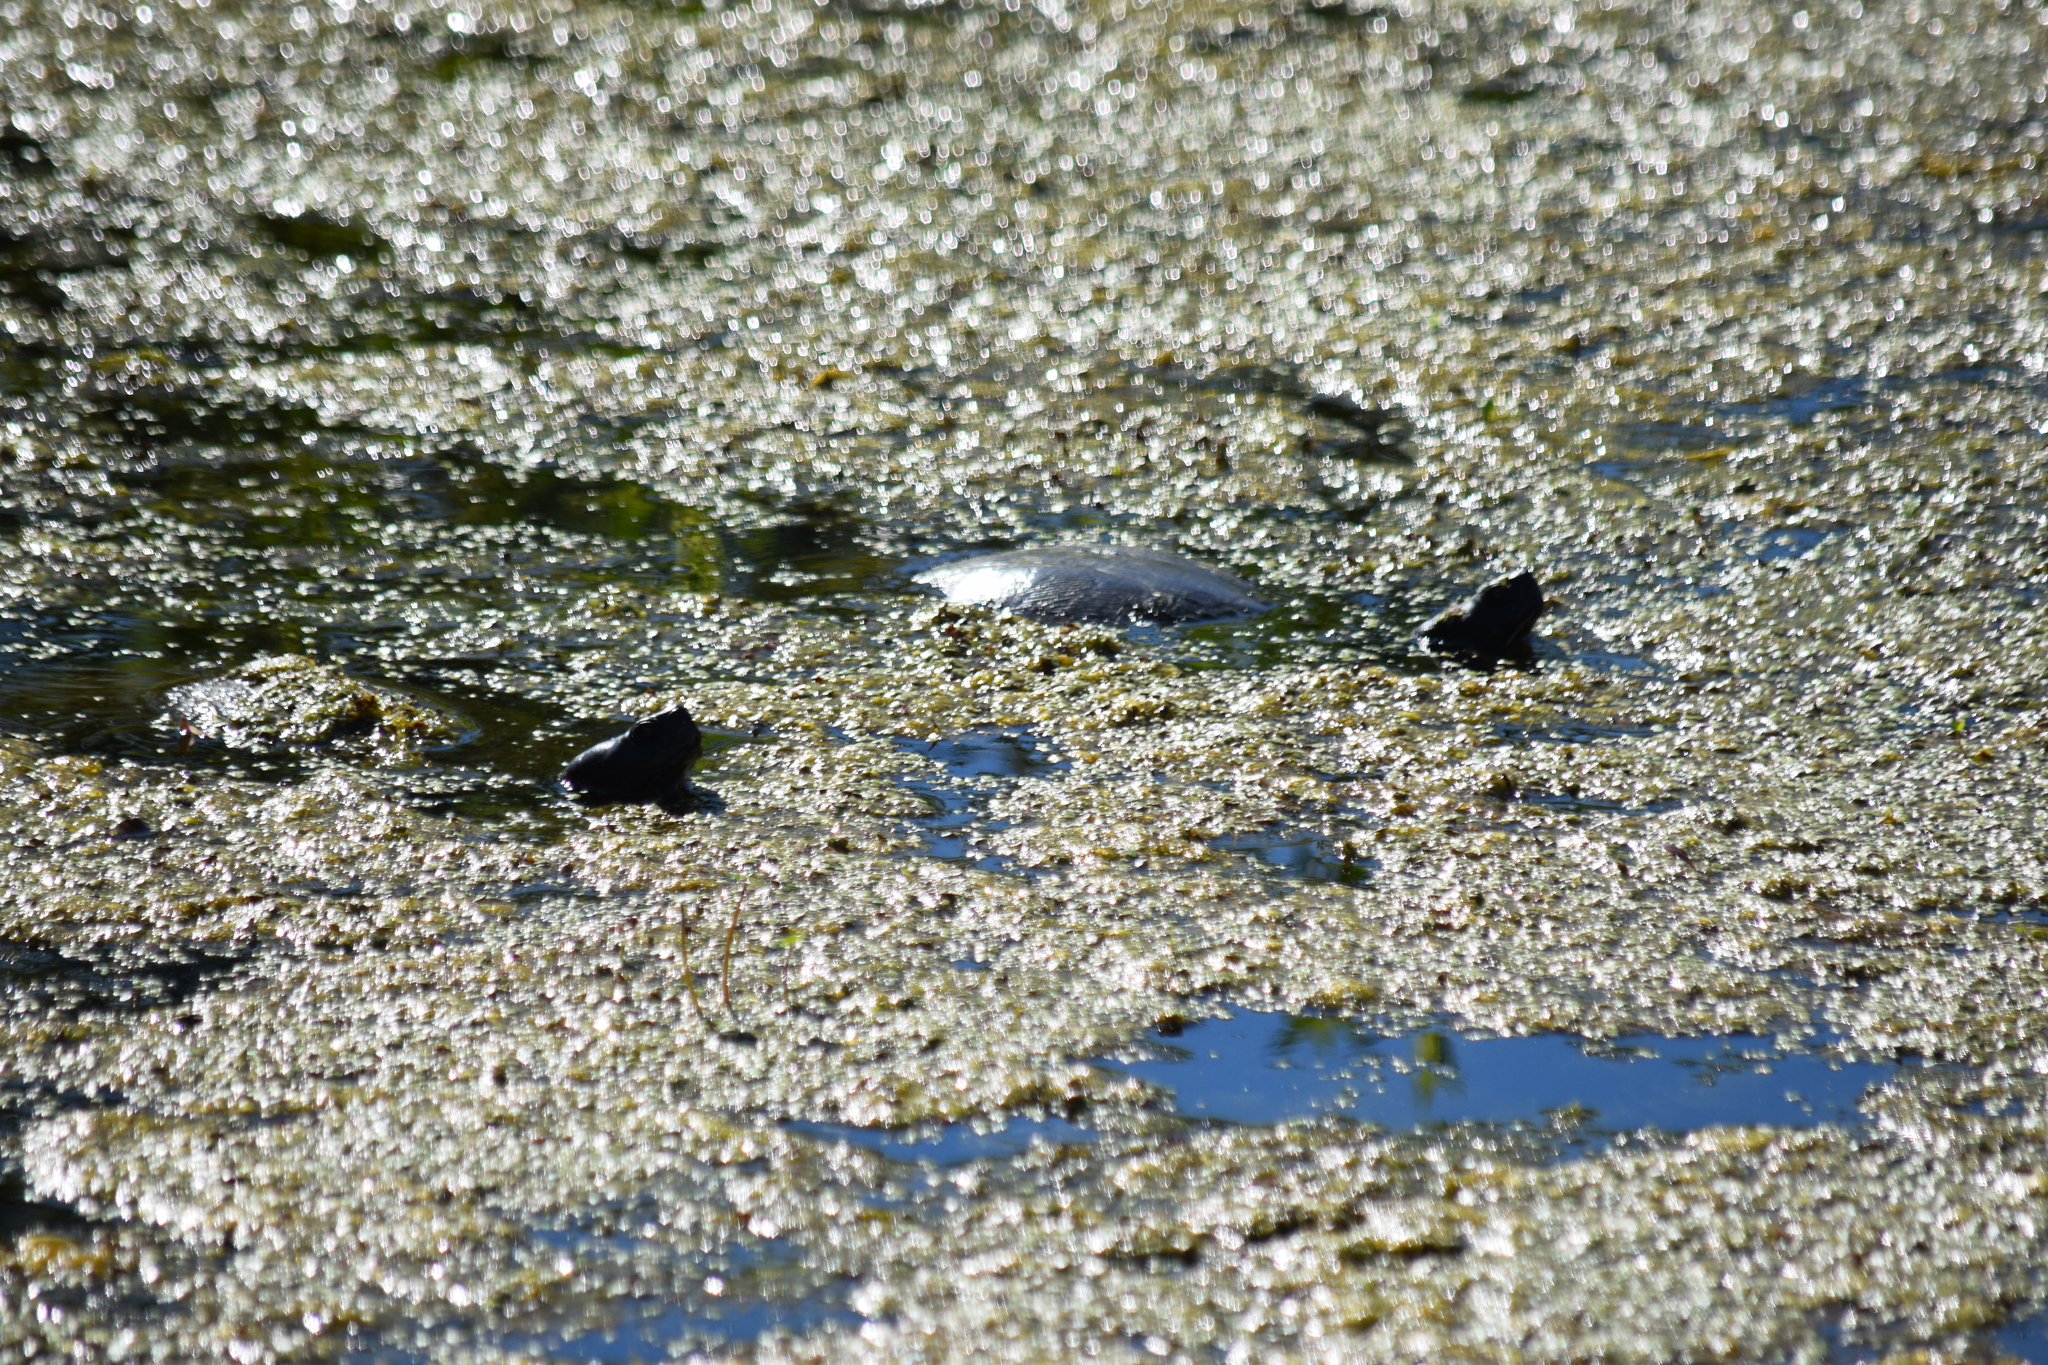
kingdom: Animalia
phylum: Chordata
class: Testudines
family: Emydidae
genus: Pseudemys
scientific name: Pseudemys rubriventris
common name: American red-bellied turtle
